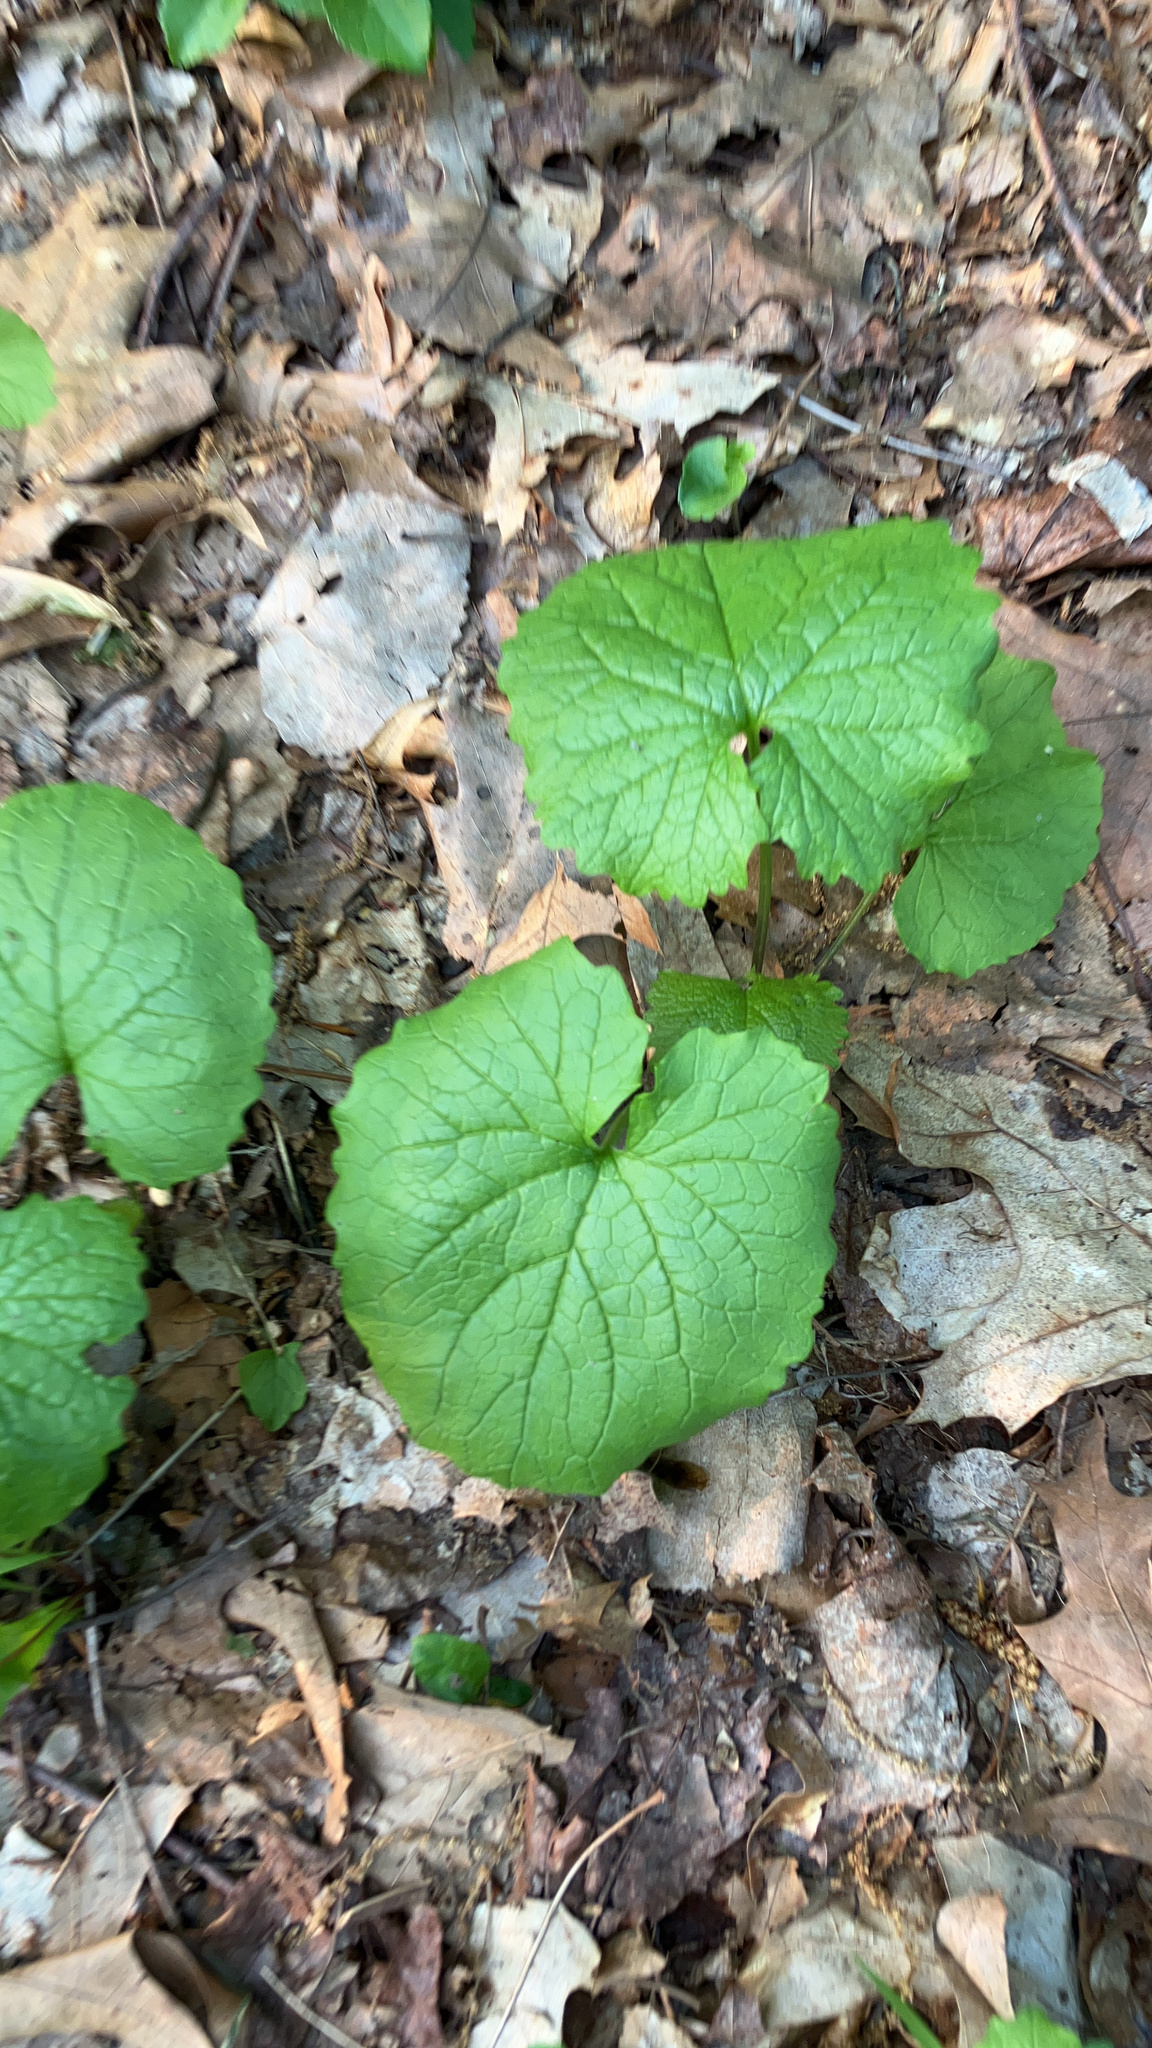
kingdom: Plantae
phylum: Tracheophyta
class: Magnoliopsida
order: Brassicales
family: Brassicaceae
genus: Alliaria
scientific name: Alliaria petiolata
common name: Garlic mustard
